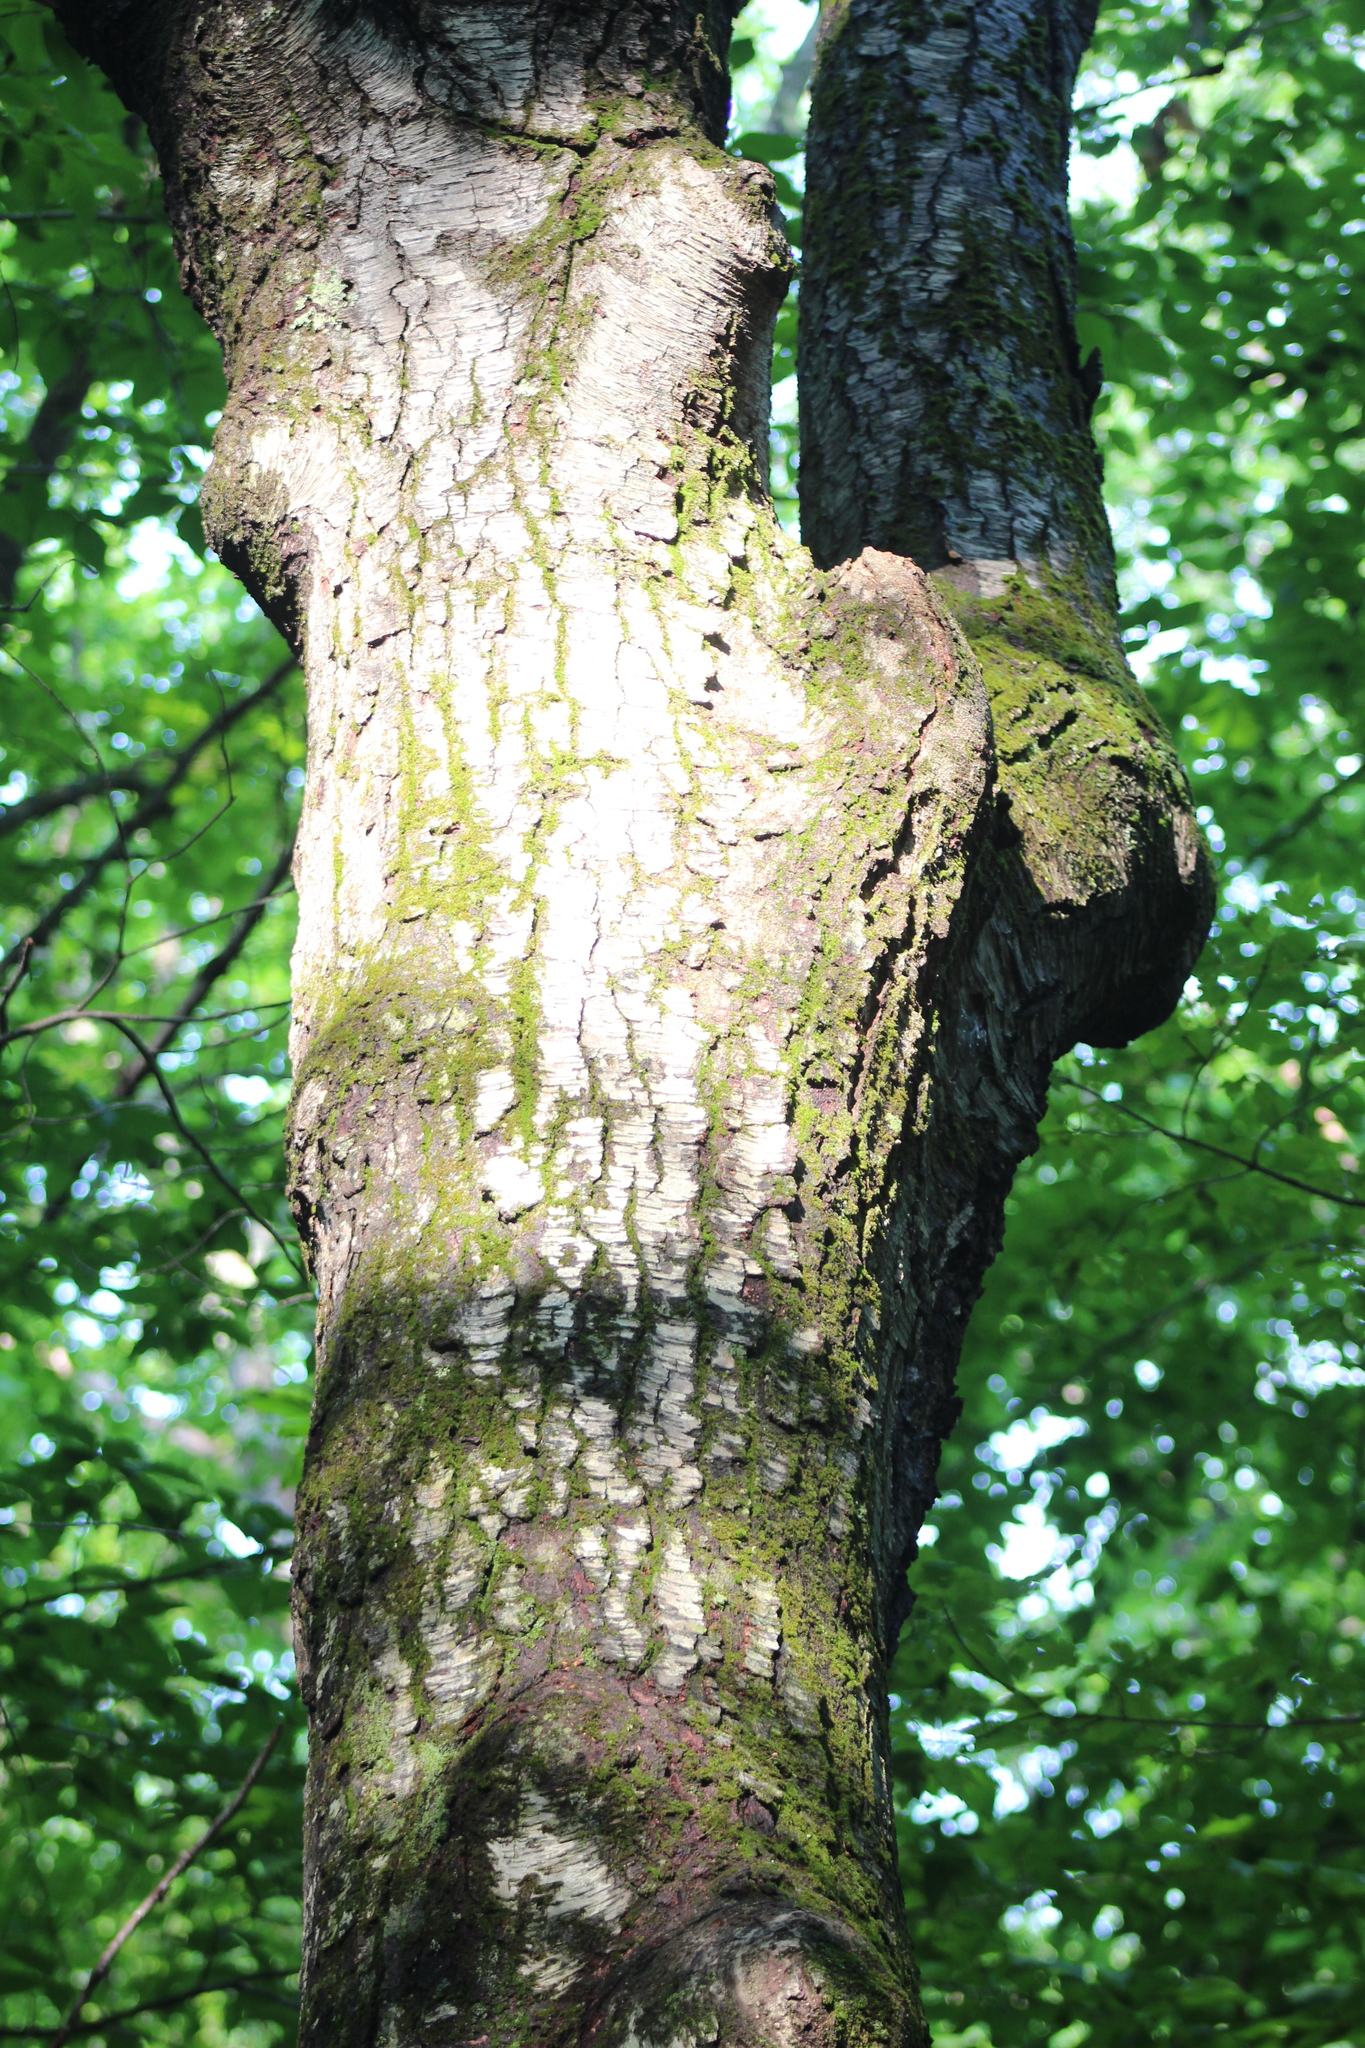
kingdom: Plantae
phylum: Tracheophyta
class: Magnoliopsida
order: Fagales
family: Betulaceae
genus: Betula
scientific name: Betula lenta
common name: Black birch
